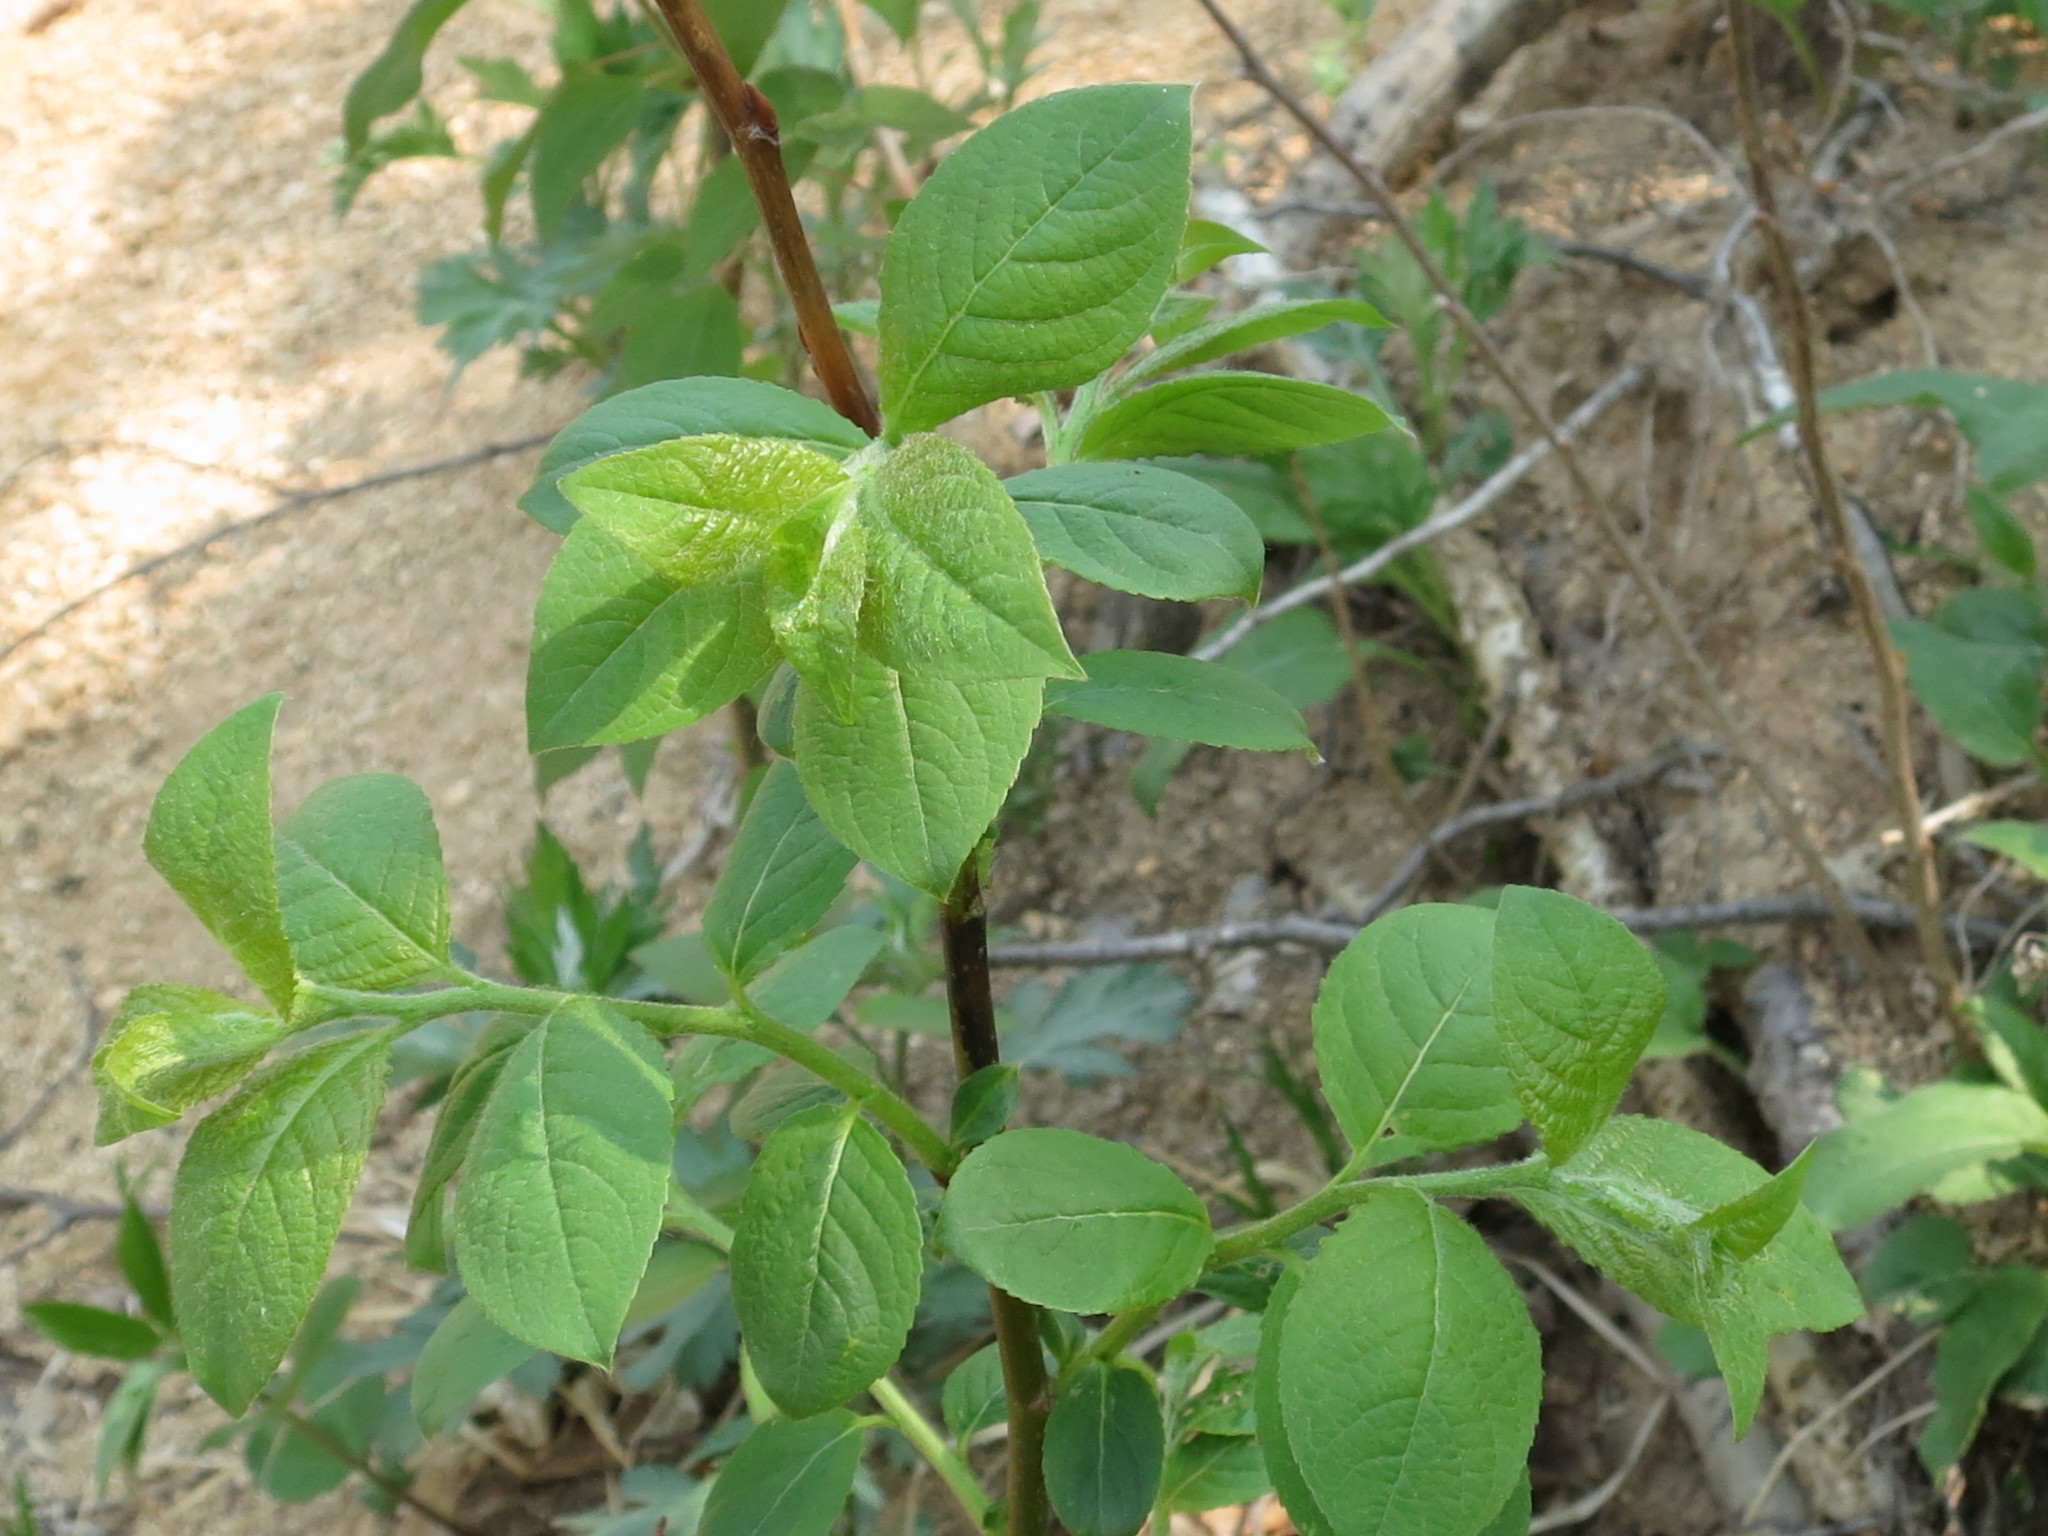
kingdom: Plantae
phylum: Tracheophyta
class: Magnoliopsida
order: Malpighiales
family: Salicaceae
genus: Salix
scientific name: Salix caprea
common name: Goat willow
